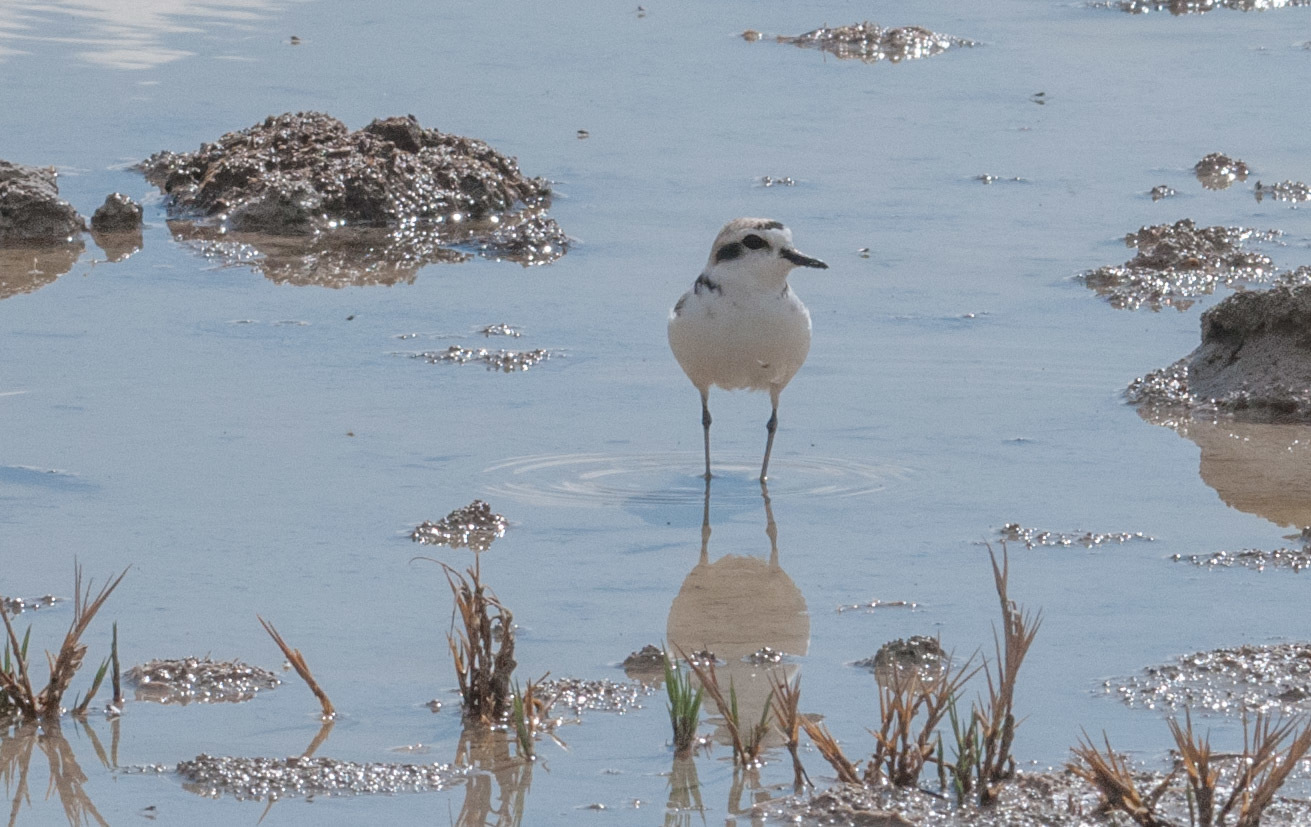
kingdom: Animalia
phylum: Chordata
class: Aves
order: Charadriiformes
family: Charadriidae
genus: Anarhynchus
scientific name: Anarhynchus
